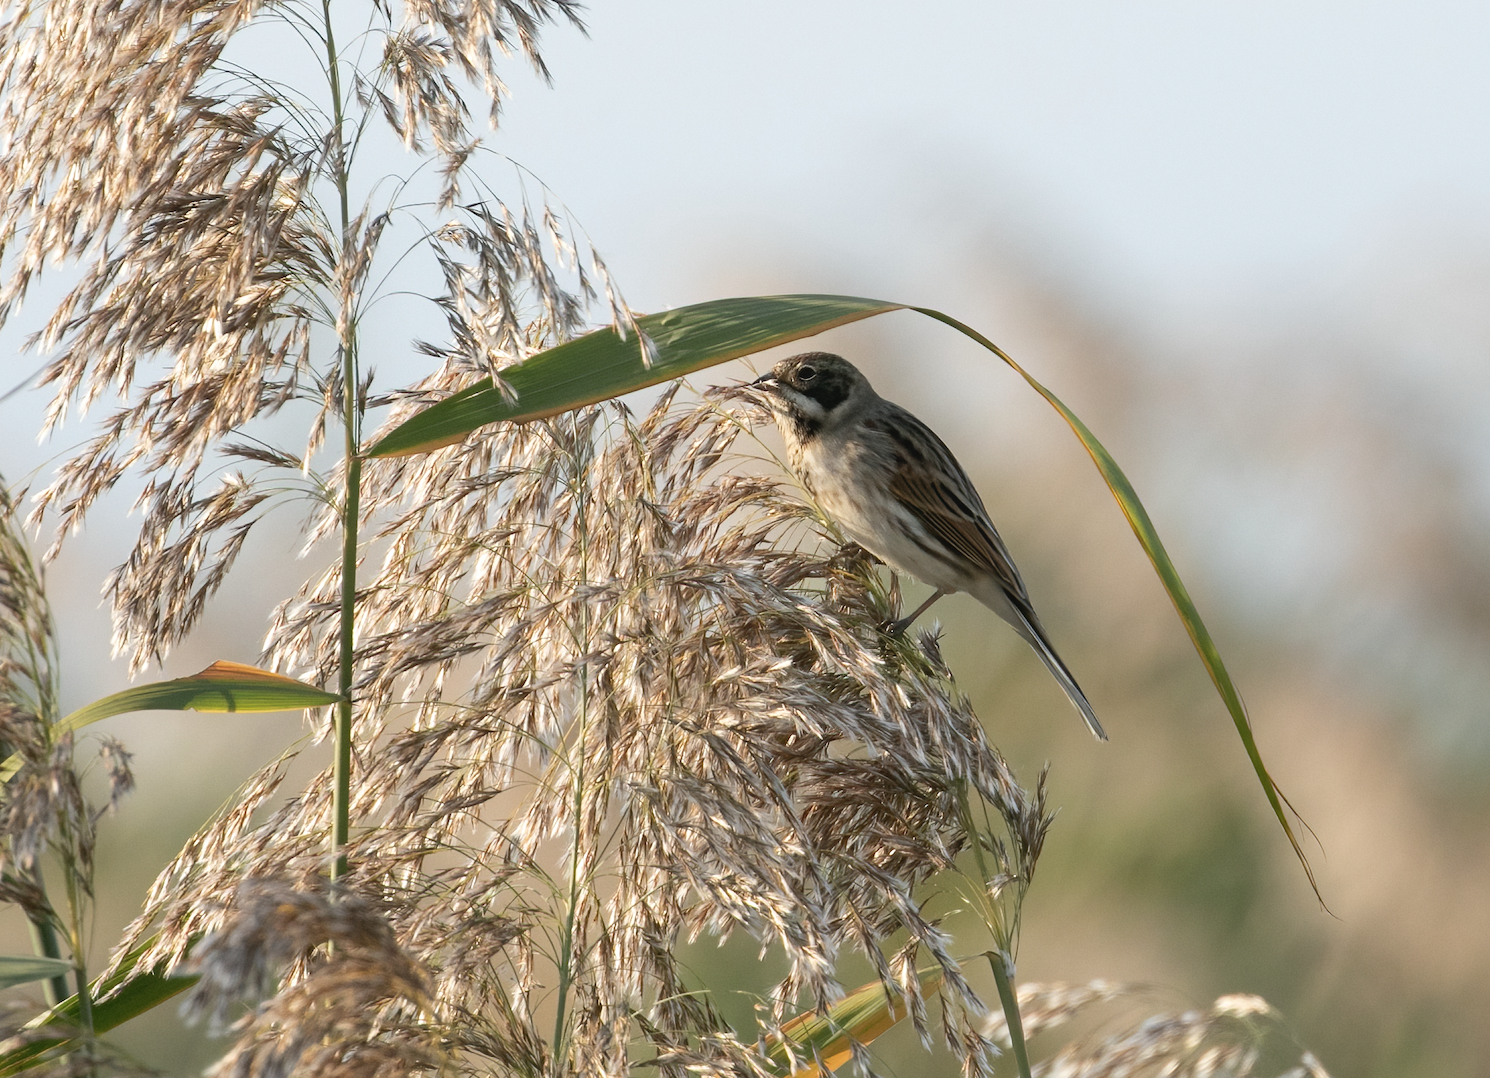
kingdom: Animalia
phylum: Chordata
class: Aves
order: Passeriformes
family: Emberizidae
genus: Emberiza
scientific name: Emberiza schoeniclus
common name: Reed bunting
